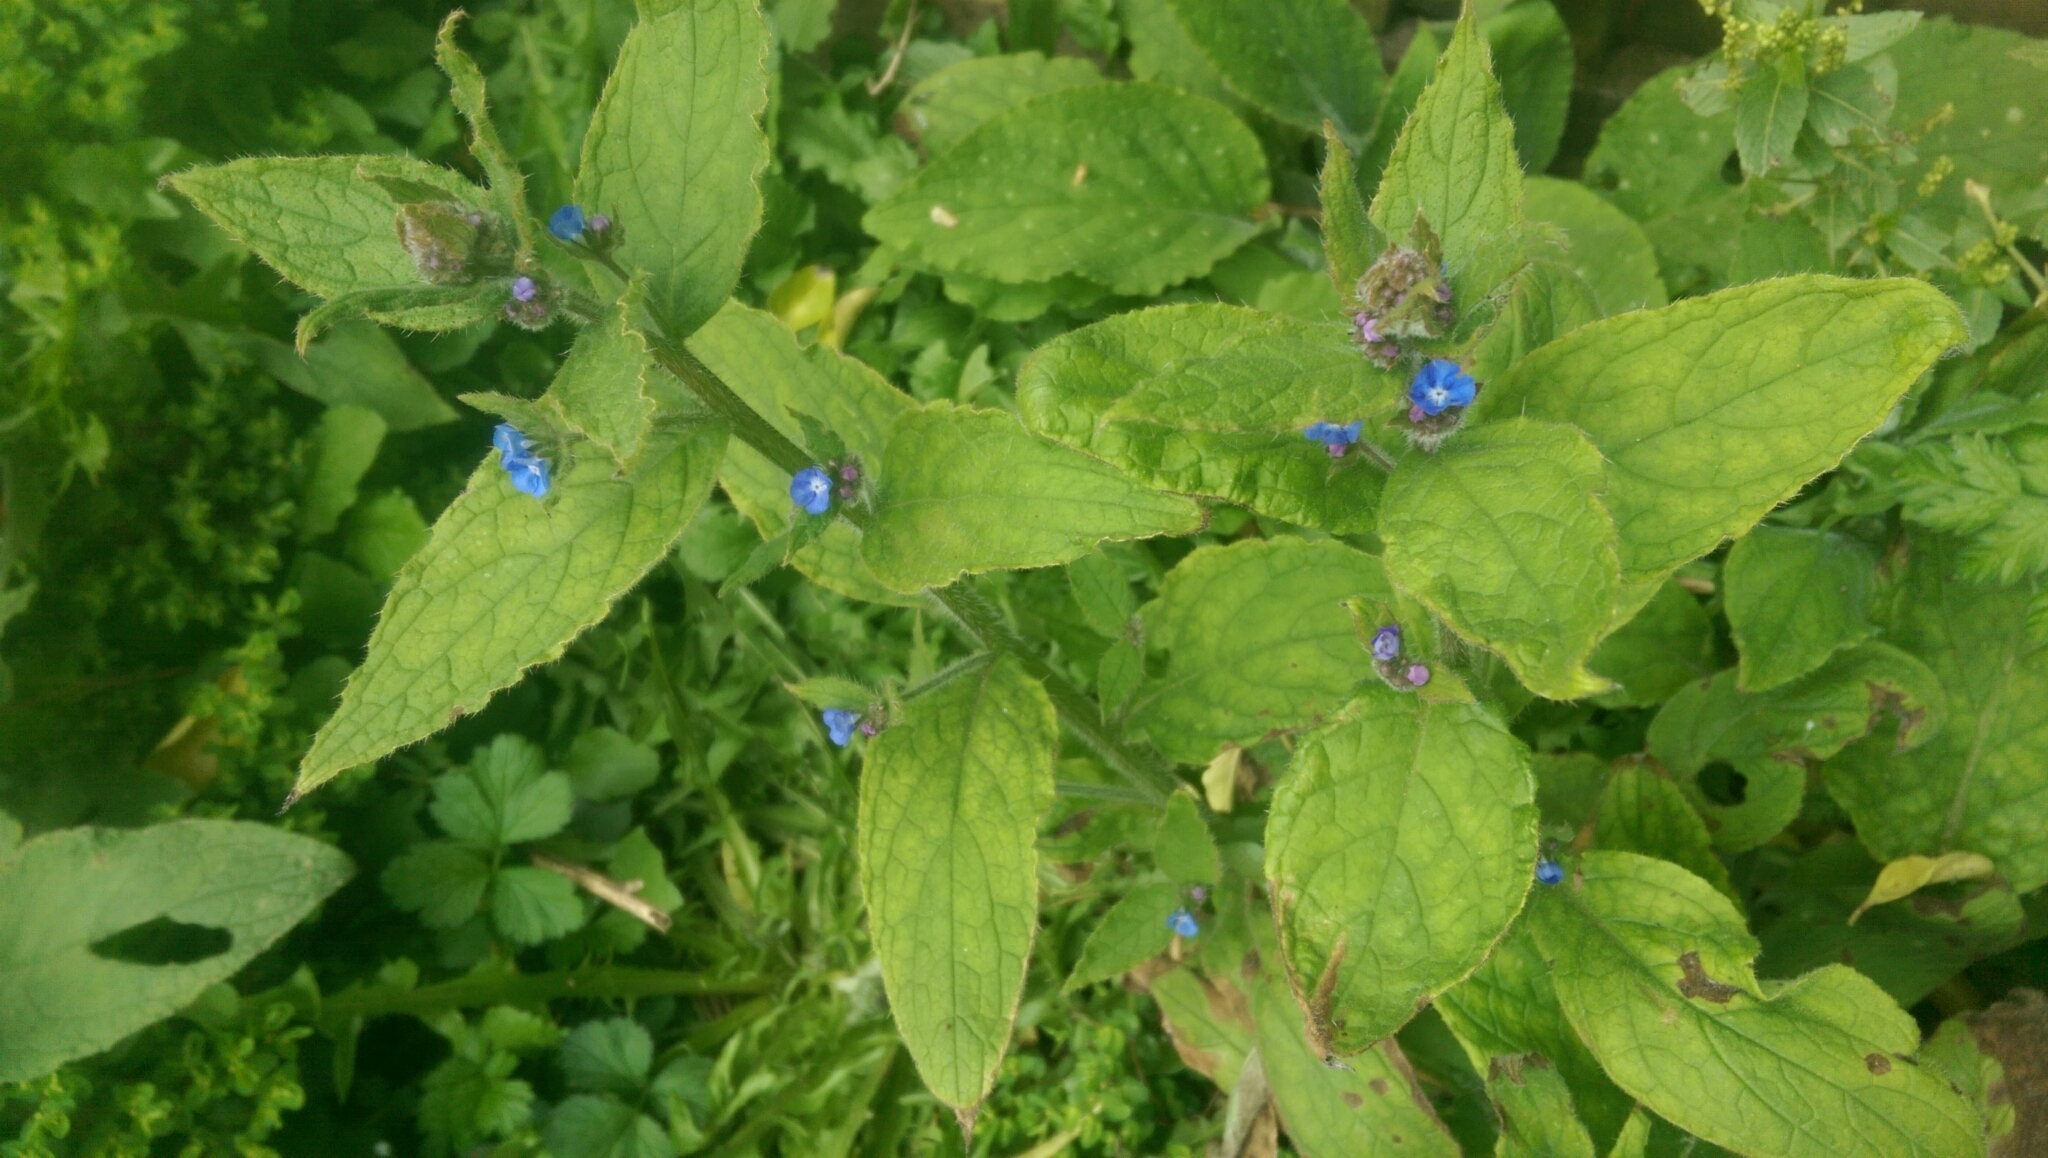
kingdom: Plantae
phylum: Tracheophyta
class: Magnoliopsida
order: Boraginales
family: Boraginaceae
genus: Pentaglottis
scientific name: Pentaglottis sempervirens
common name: Green alkanet
